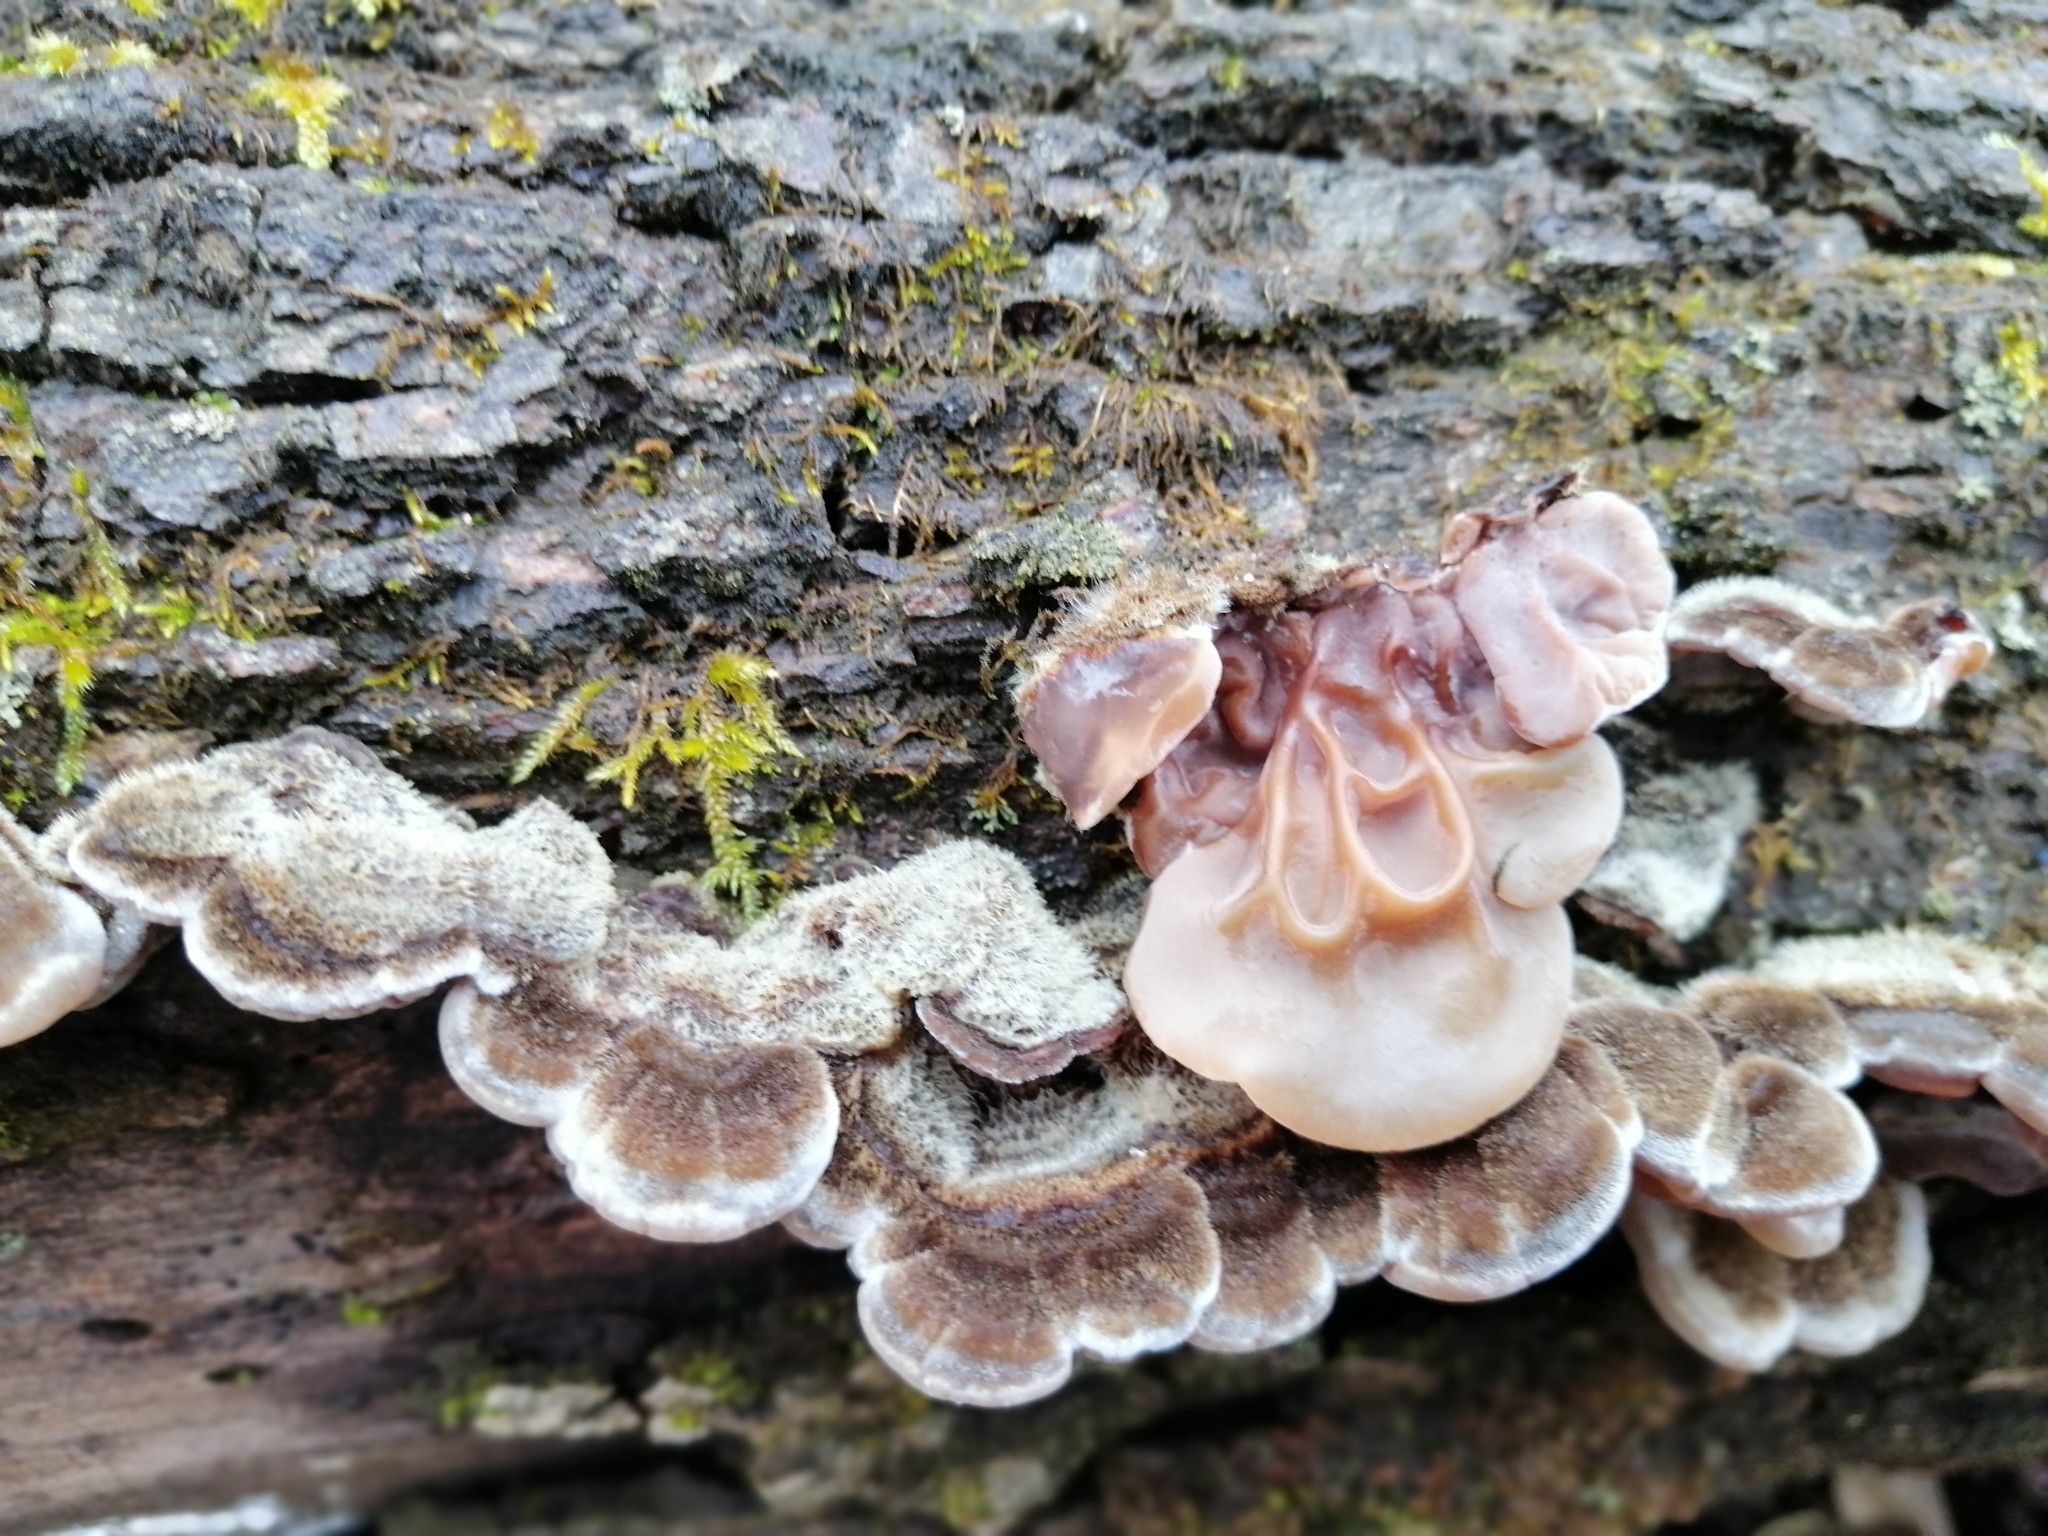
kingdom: Fungi
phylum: Basidiomycota
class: Agaricomycetes
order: Auriculariales
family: Auriculariaceae
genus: Auricularia
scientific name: Auricularia mesenterica
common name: Tripe fungus
